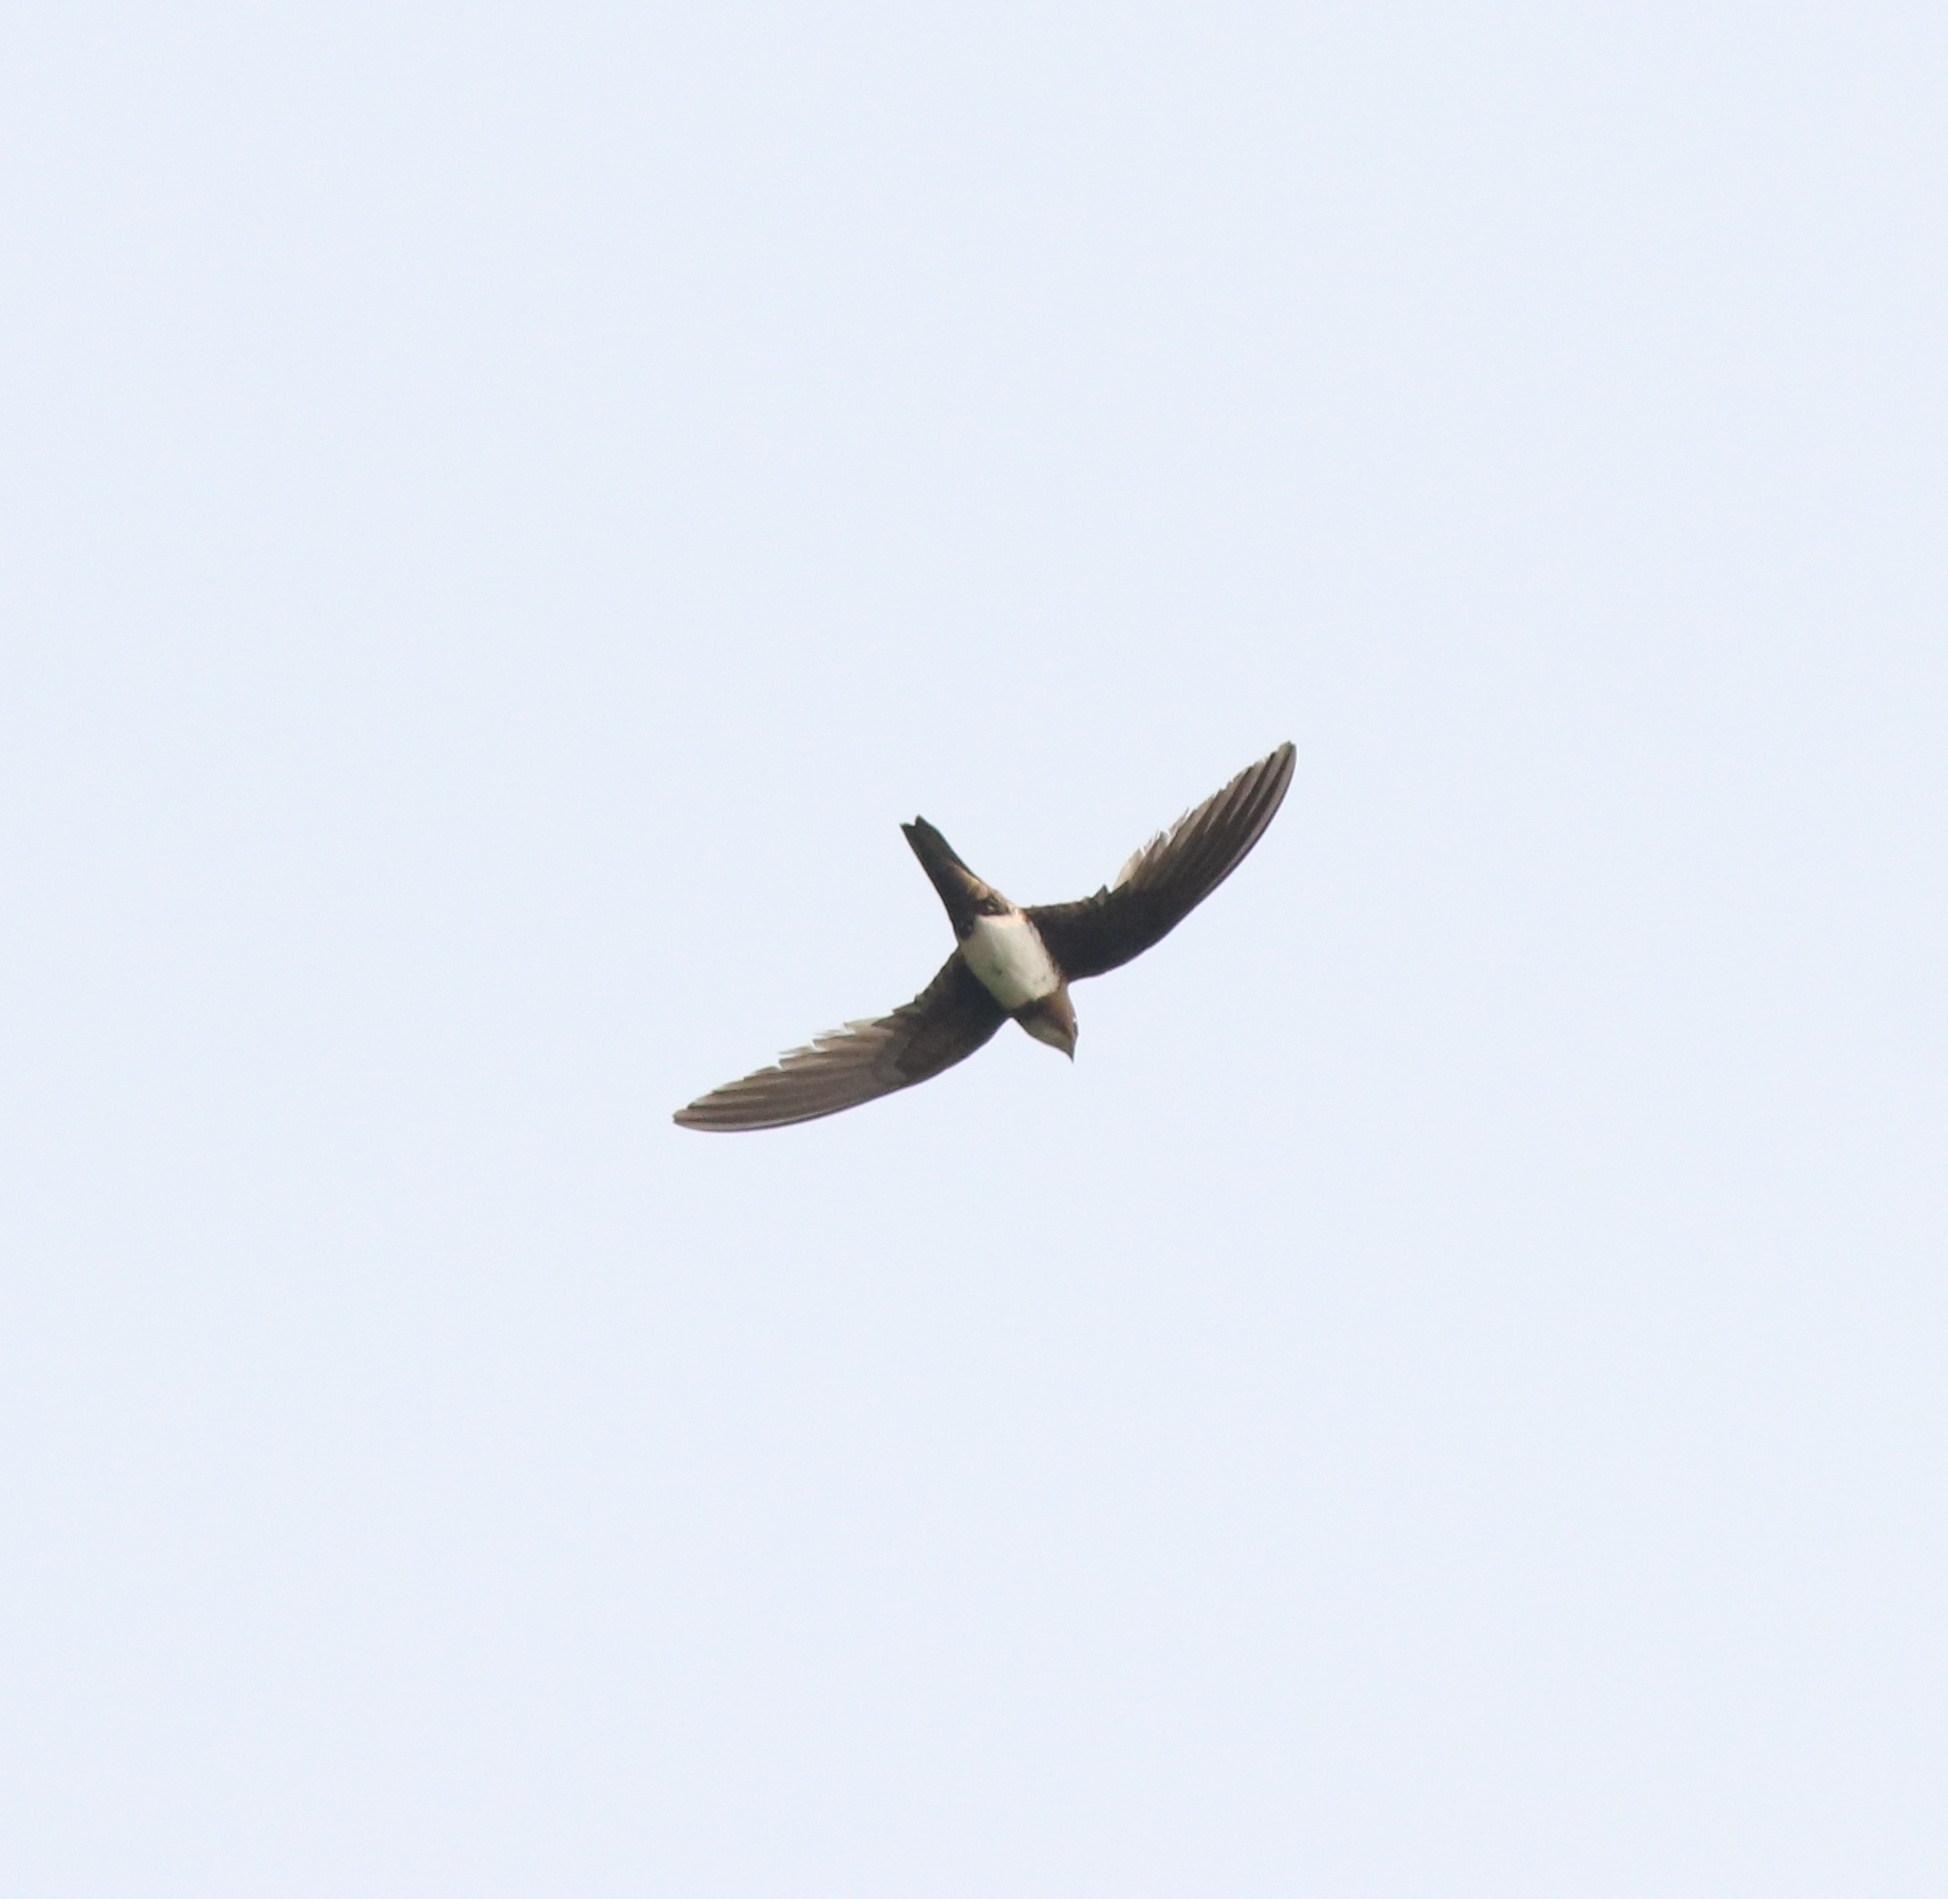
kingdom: Animalia
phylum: Chordata
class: Aves
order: Apodiformes
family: Apodidae
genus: Tachymarptis
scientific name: Tachymarptis melba
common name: Alpine swift
